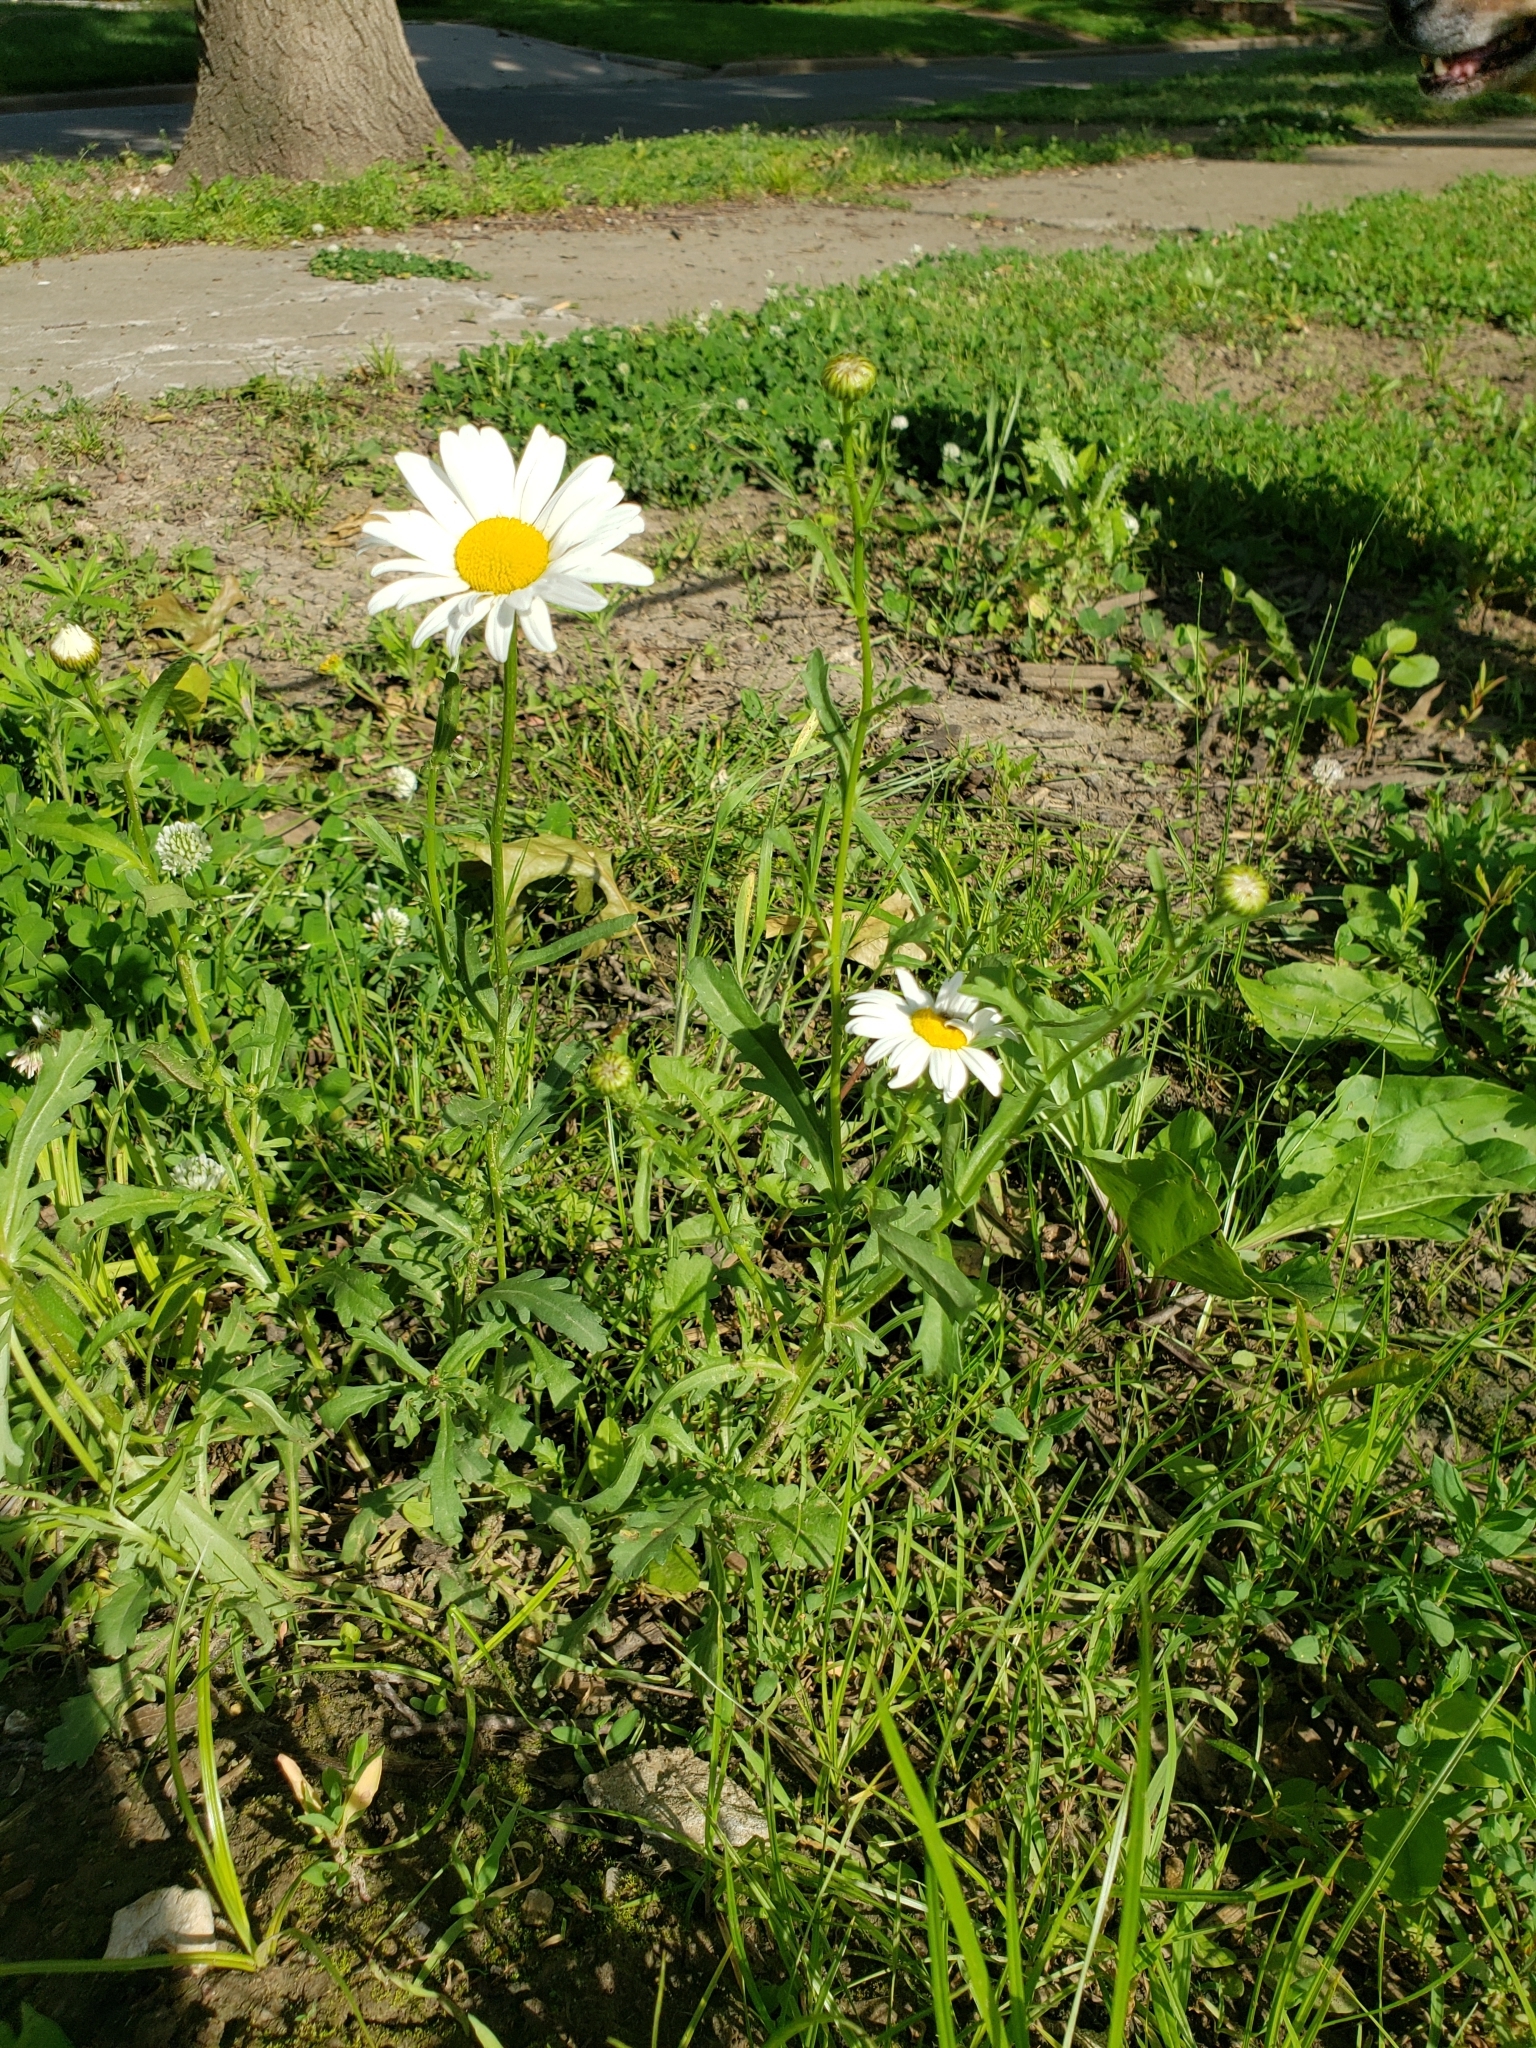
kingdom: Plantae
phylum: Tracheophyta
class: Magnoliopsida
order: Asterales
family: Asteraceae
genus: Leucanthemum
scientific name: Leucanthemum vulgare
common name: Oxeye daisy
